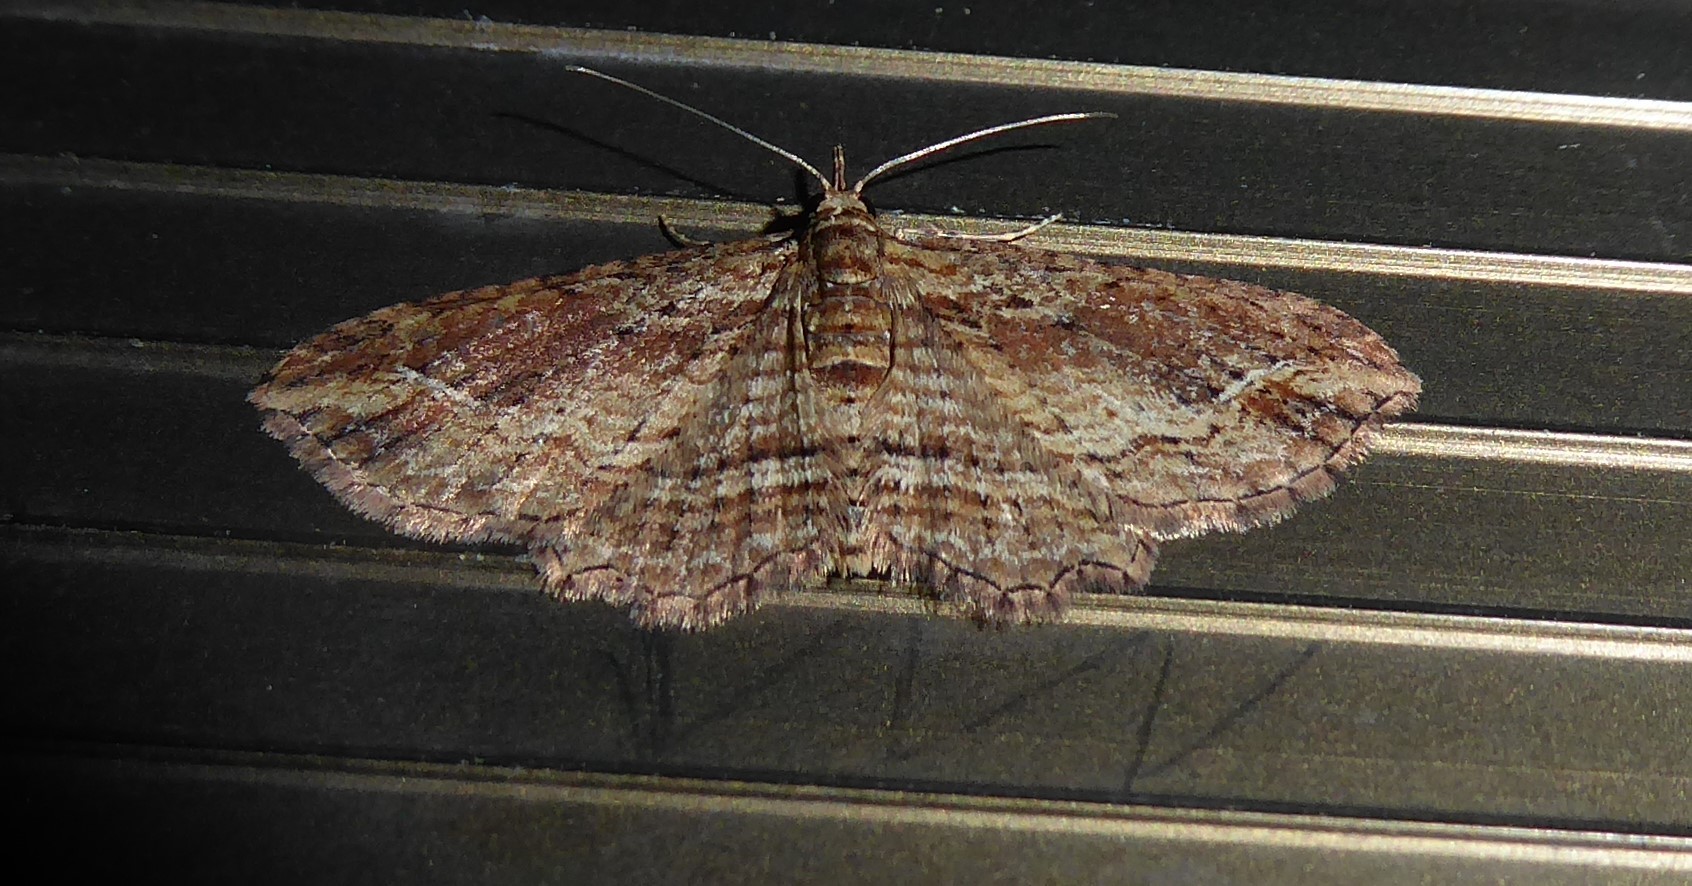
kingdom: Animalia
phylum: Arthropoda
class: Insecta
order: Lepidoptera
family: Geometridae
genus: Chloroclystis
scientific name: Chloroclystis filata
